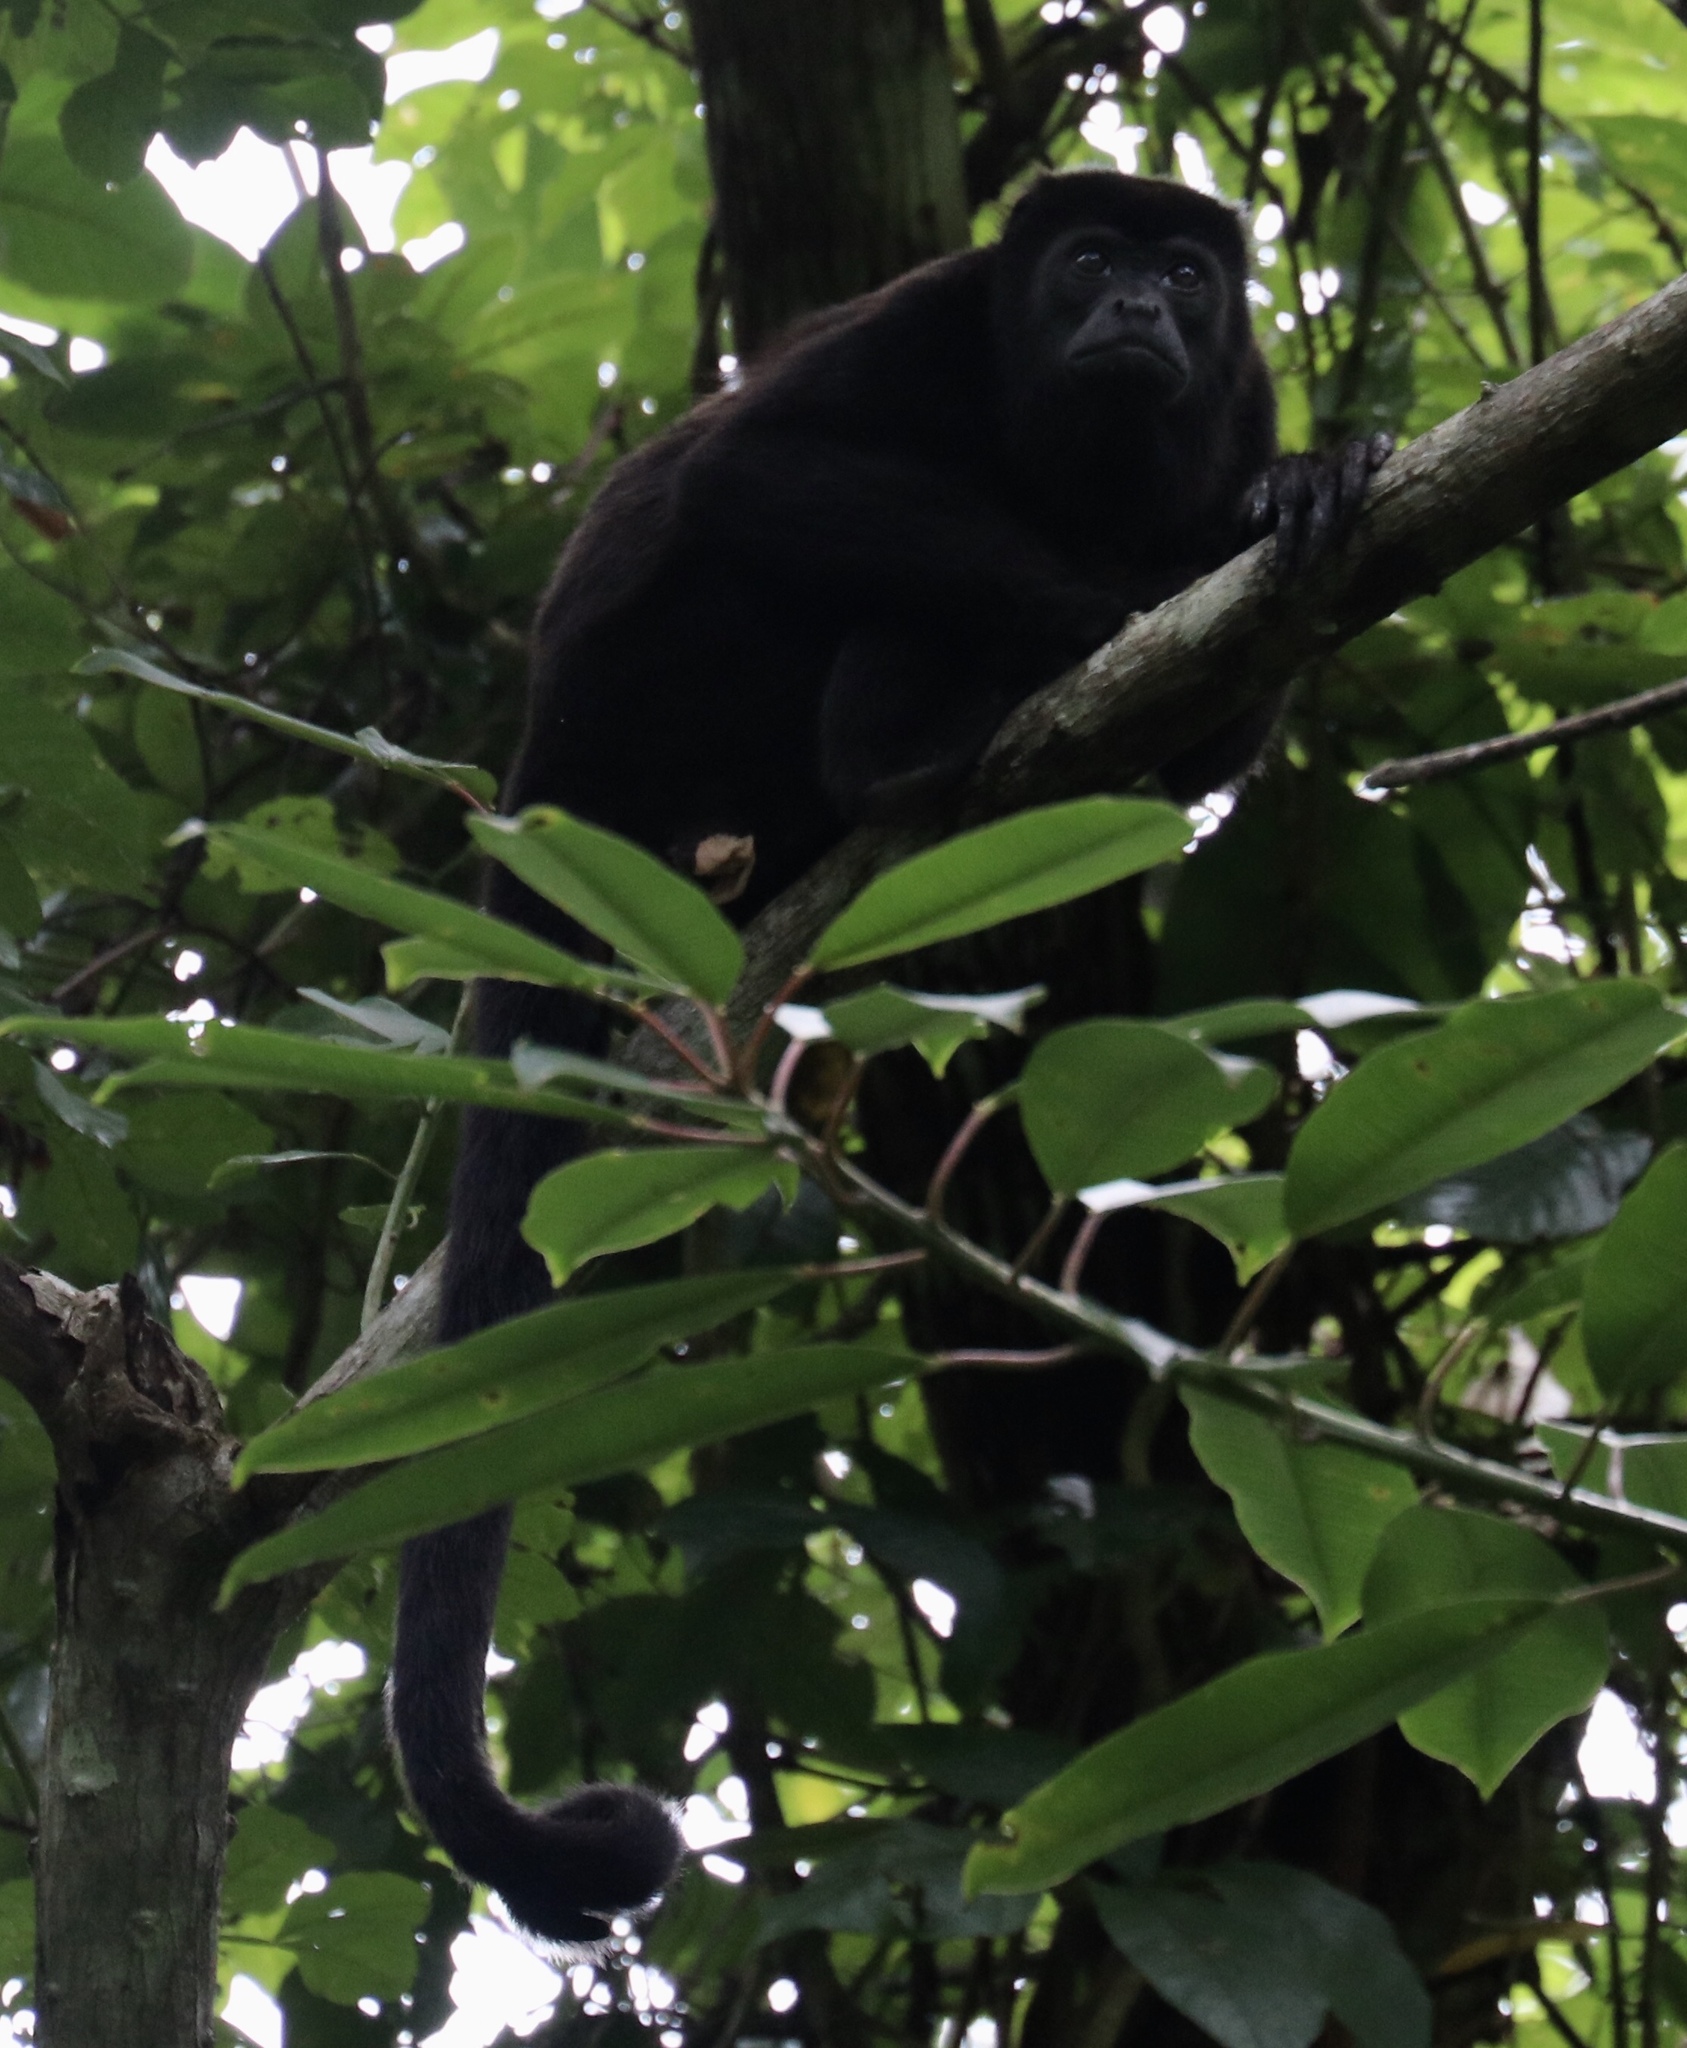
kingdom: Animalia
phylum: Chordata
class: Mammalia
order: Primates
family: Atelidae
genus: Alouatta
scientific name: Alouatta palliata
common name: Mantled howler
